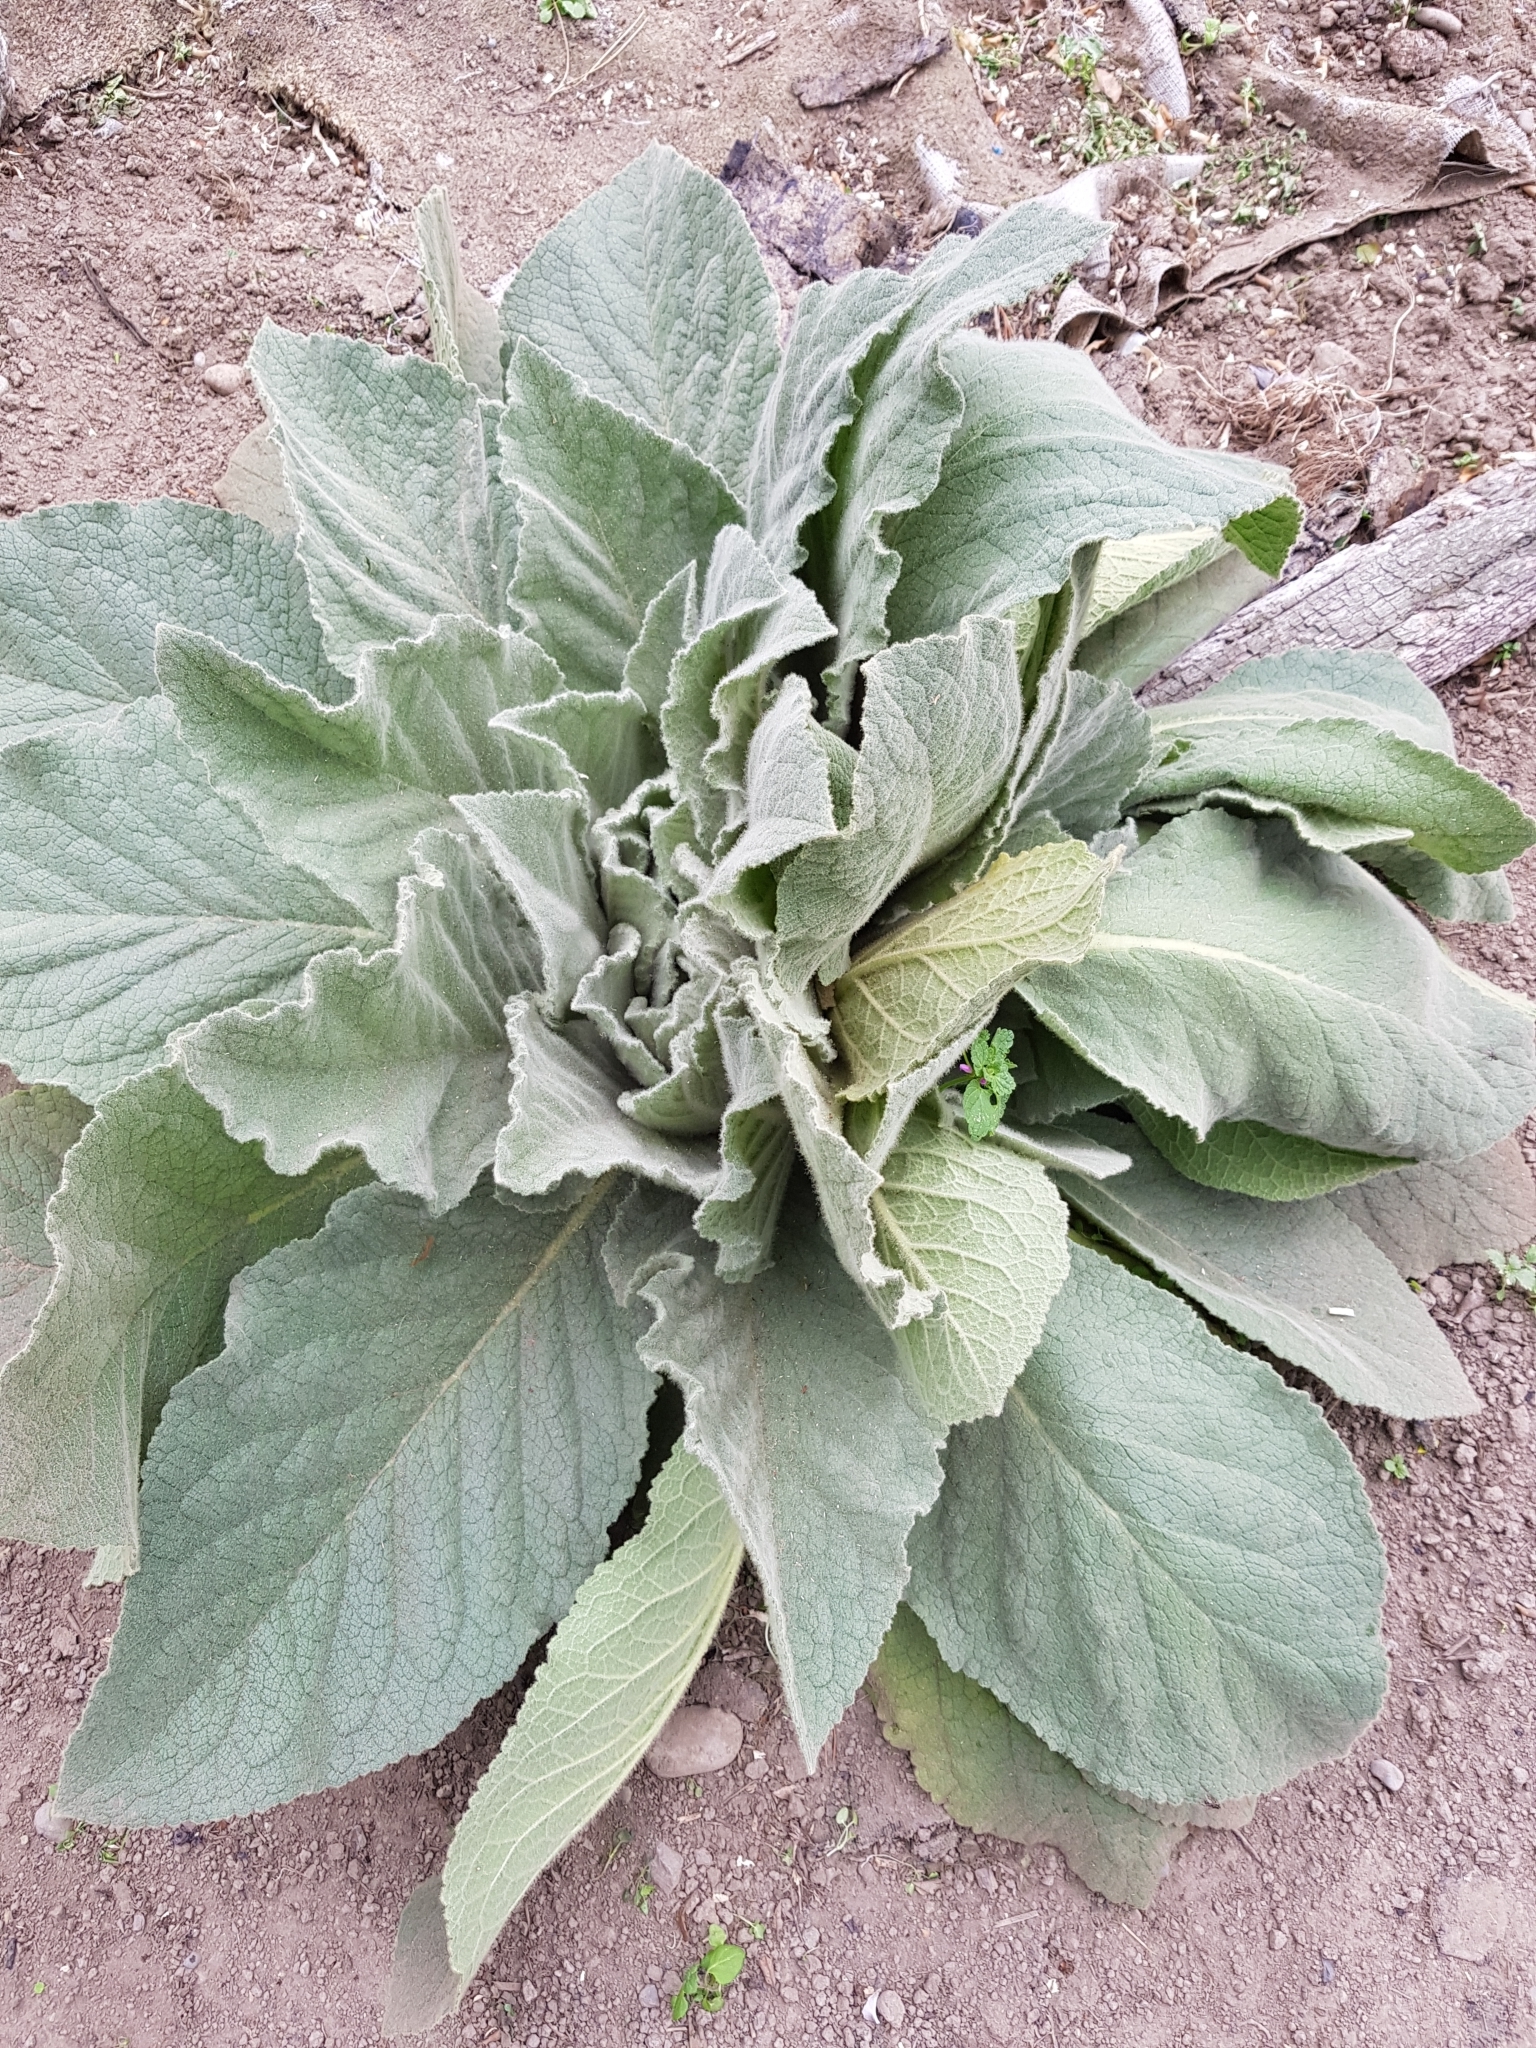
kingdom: Plantae
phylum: Tracheophyta
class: Magnoliopsida
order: Lamiales
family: Scrophulariaceae
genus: Verbascum
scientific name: Verbascum thapsus
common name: Common mullein
